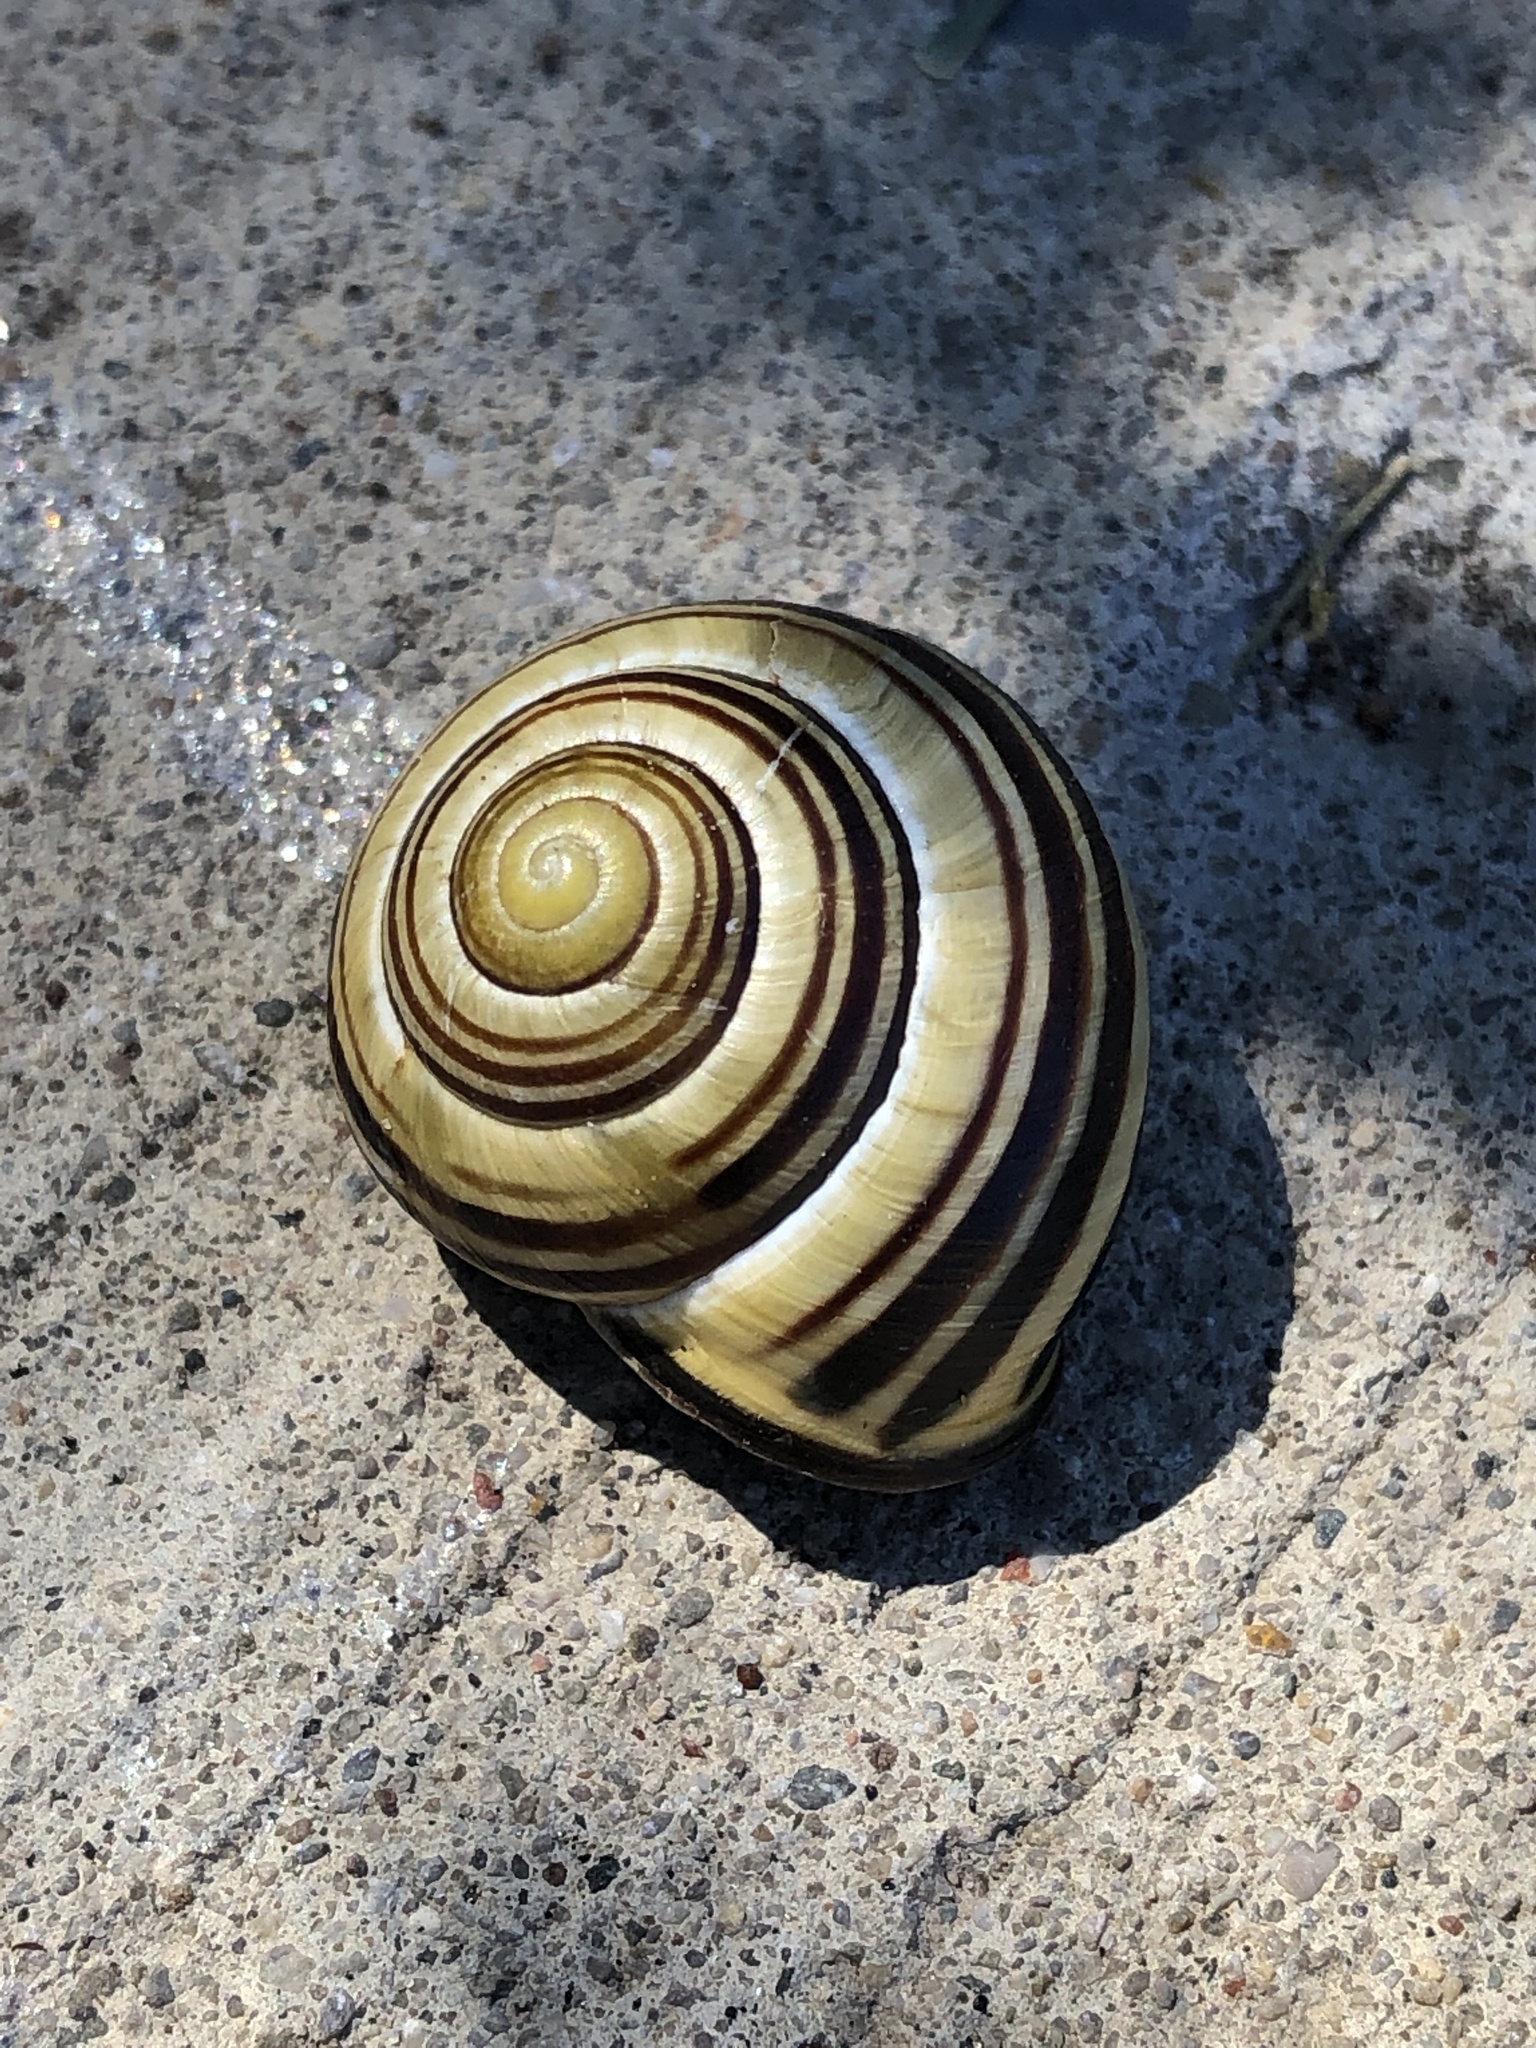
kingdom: Animalia
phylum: Mollusca
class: Gastropoda
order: Stylommatophora
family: Helicidae
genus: Cepaea
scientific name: Cepaea nemoralis
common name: Grovesnail
